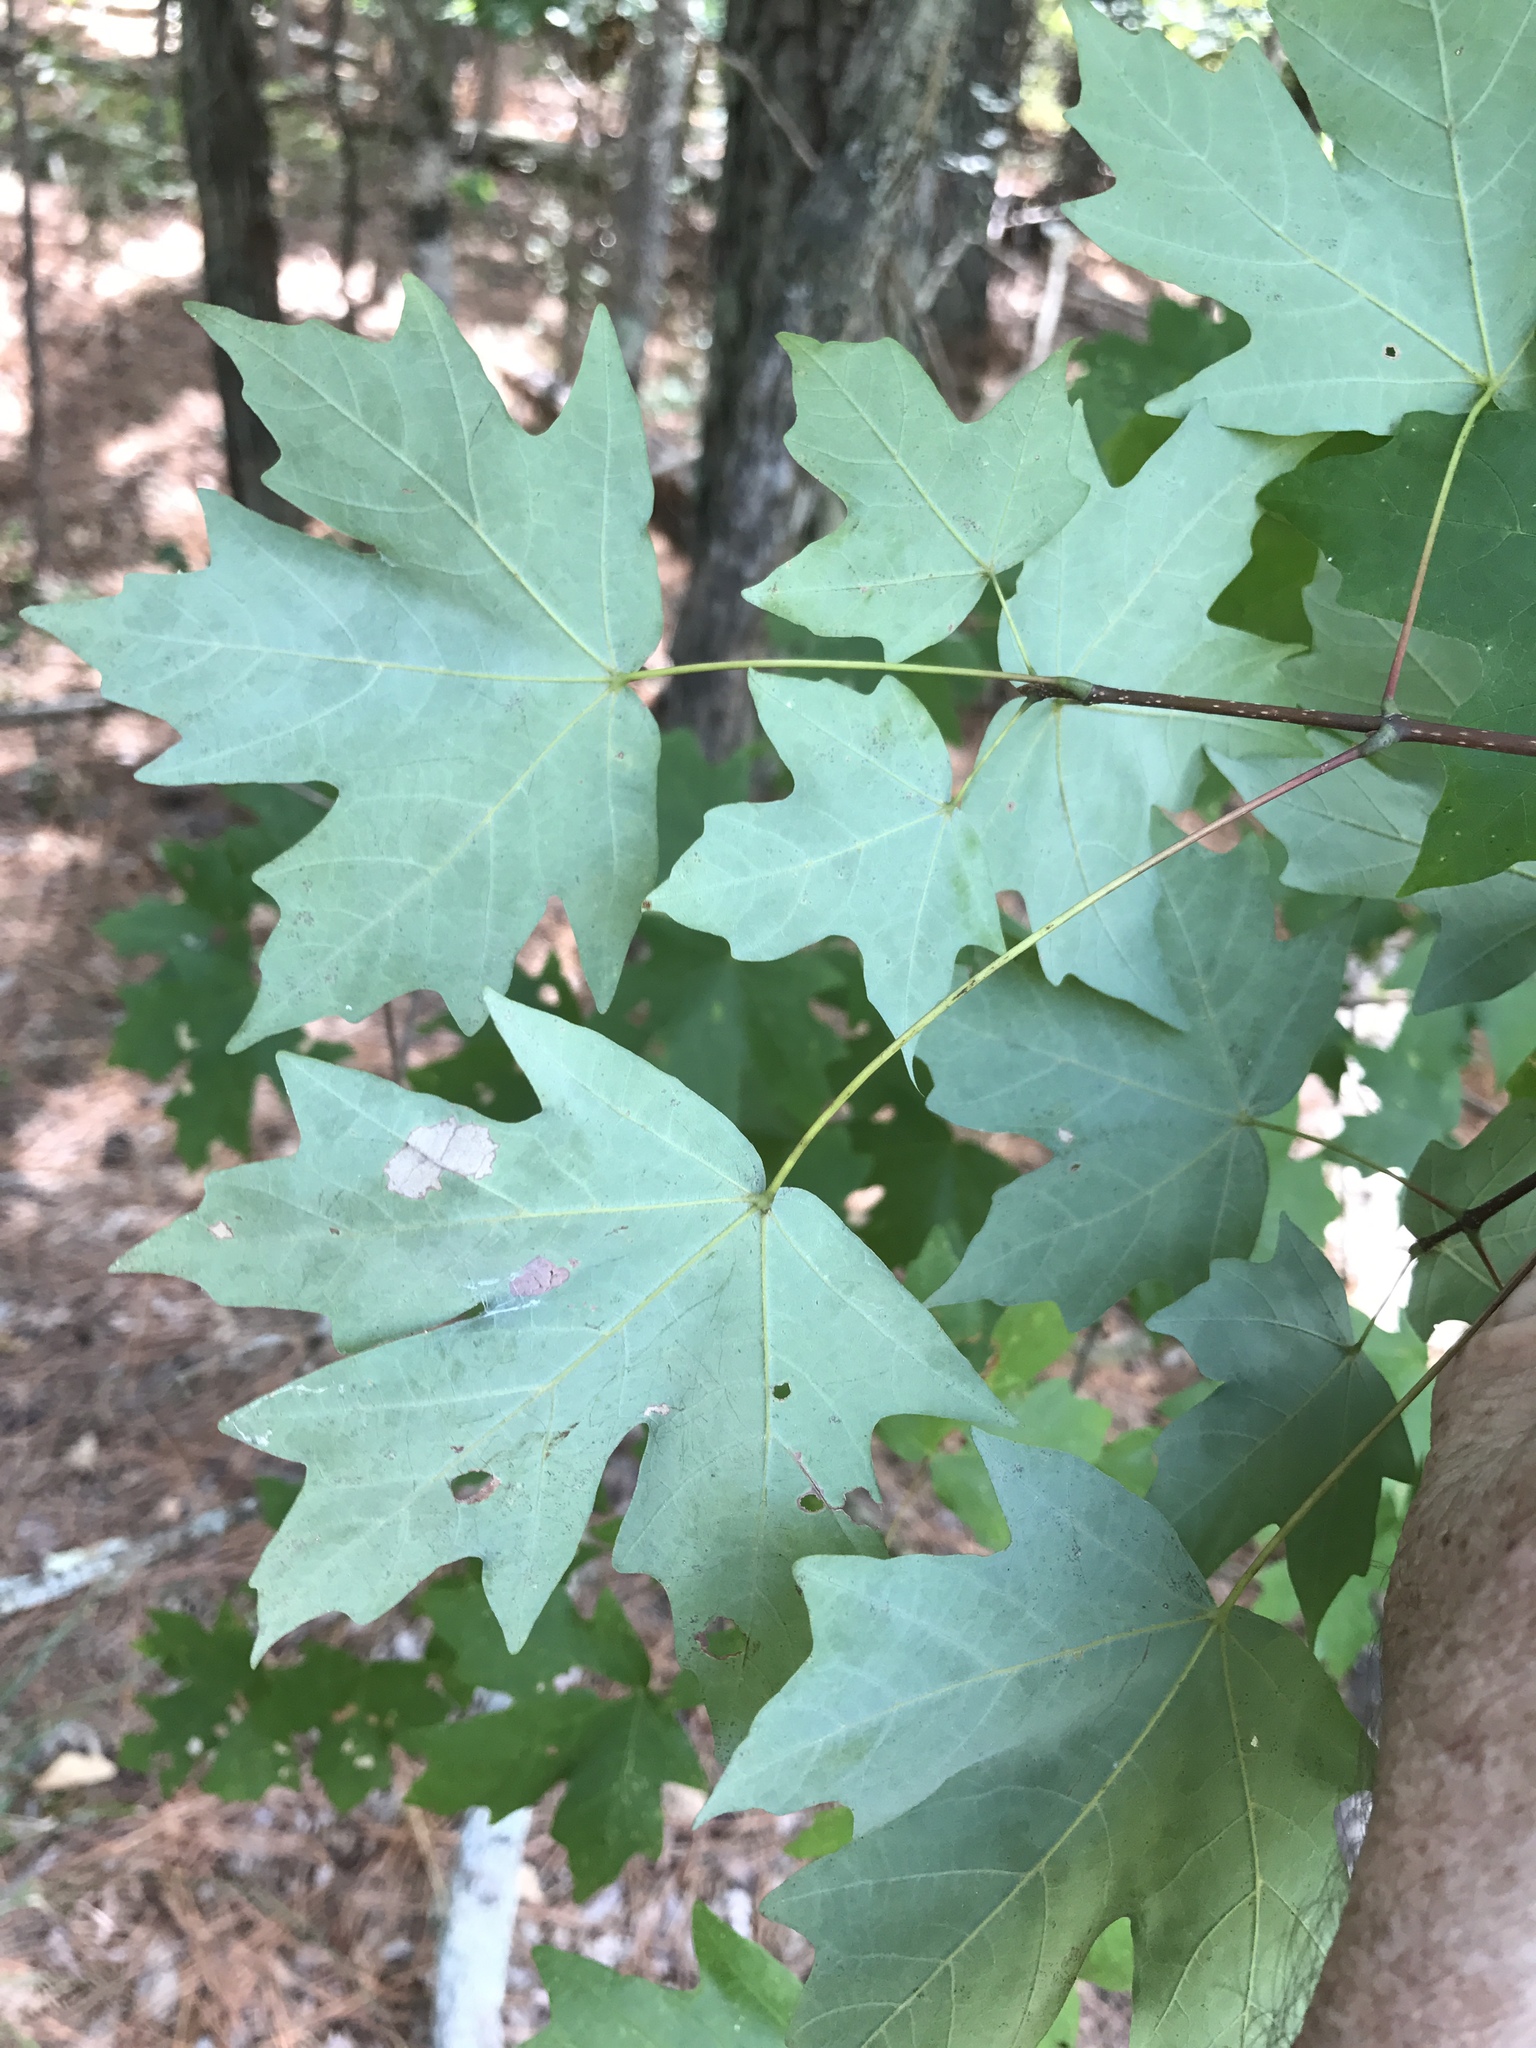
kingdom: Plantae
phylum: Tracheophyta
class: Magnoliopsida
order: Sapindales
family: Sapindaceae
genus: Acer
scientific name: Acer floridanum
